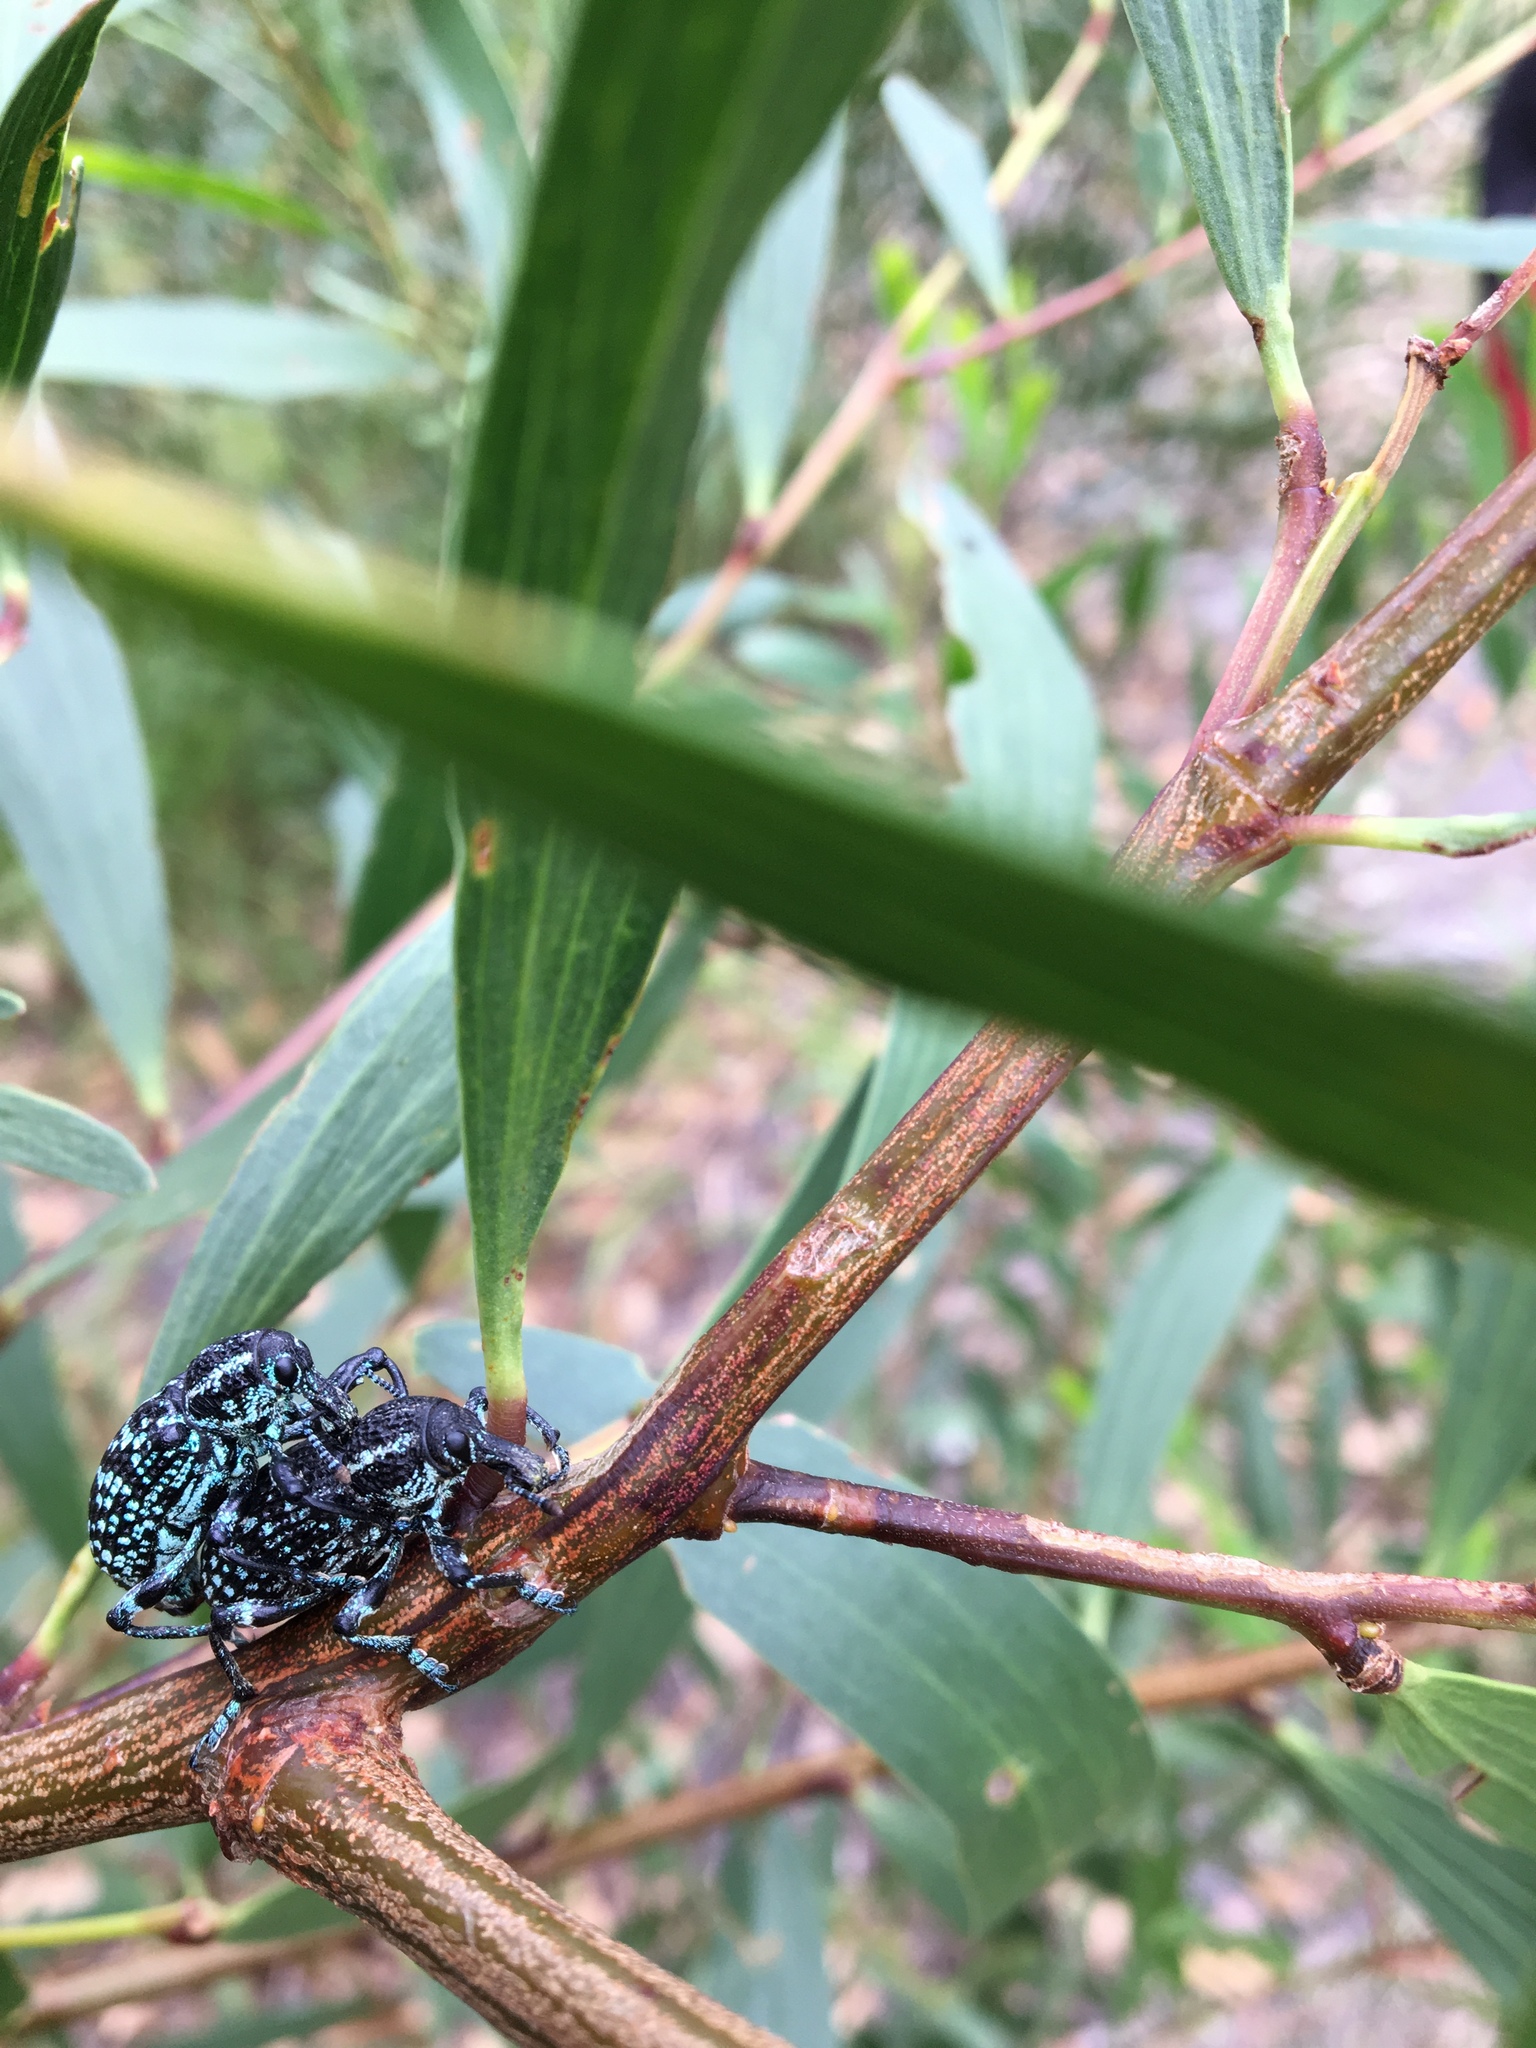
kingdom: Animalia
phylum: Arthropoda
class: Insecta
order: Coleoptera
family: Curculionidae
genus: Chrysolopus
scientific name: Chrysolopus spectabilis
